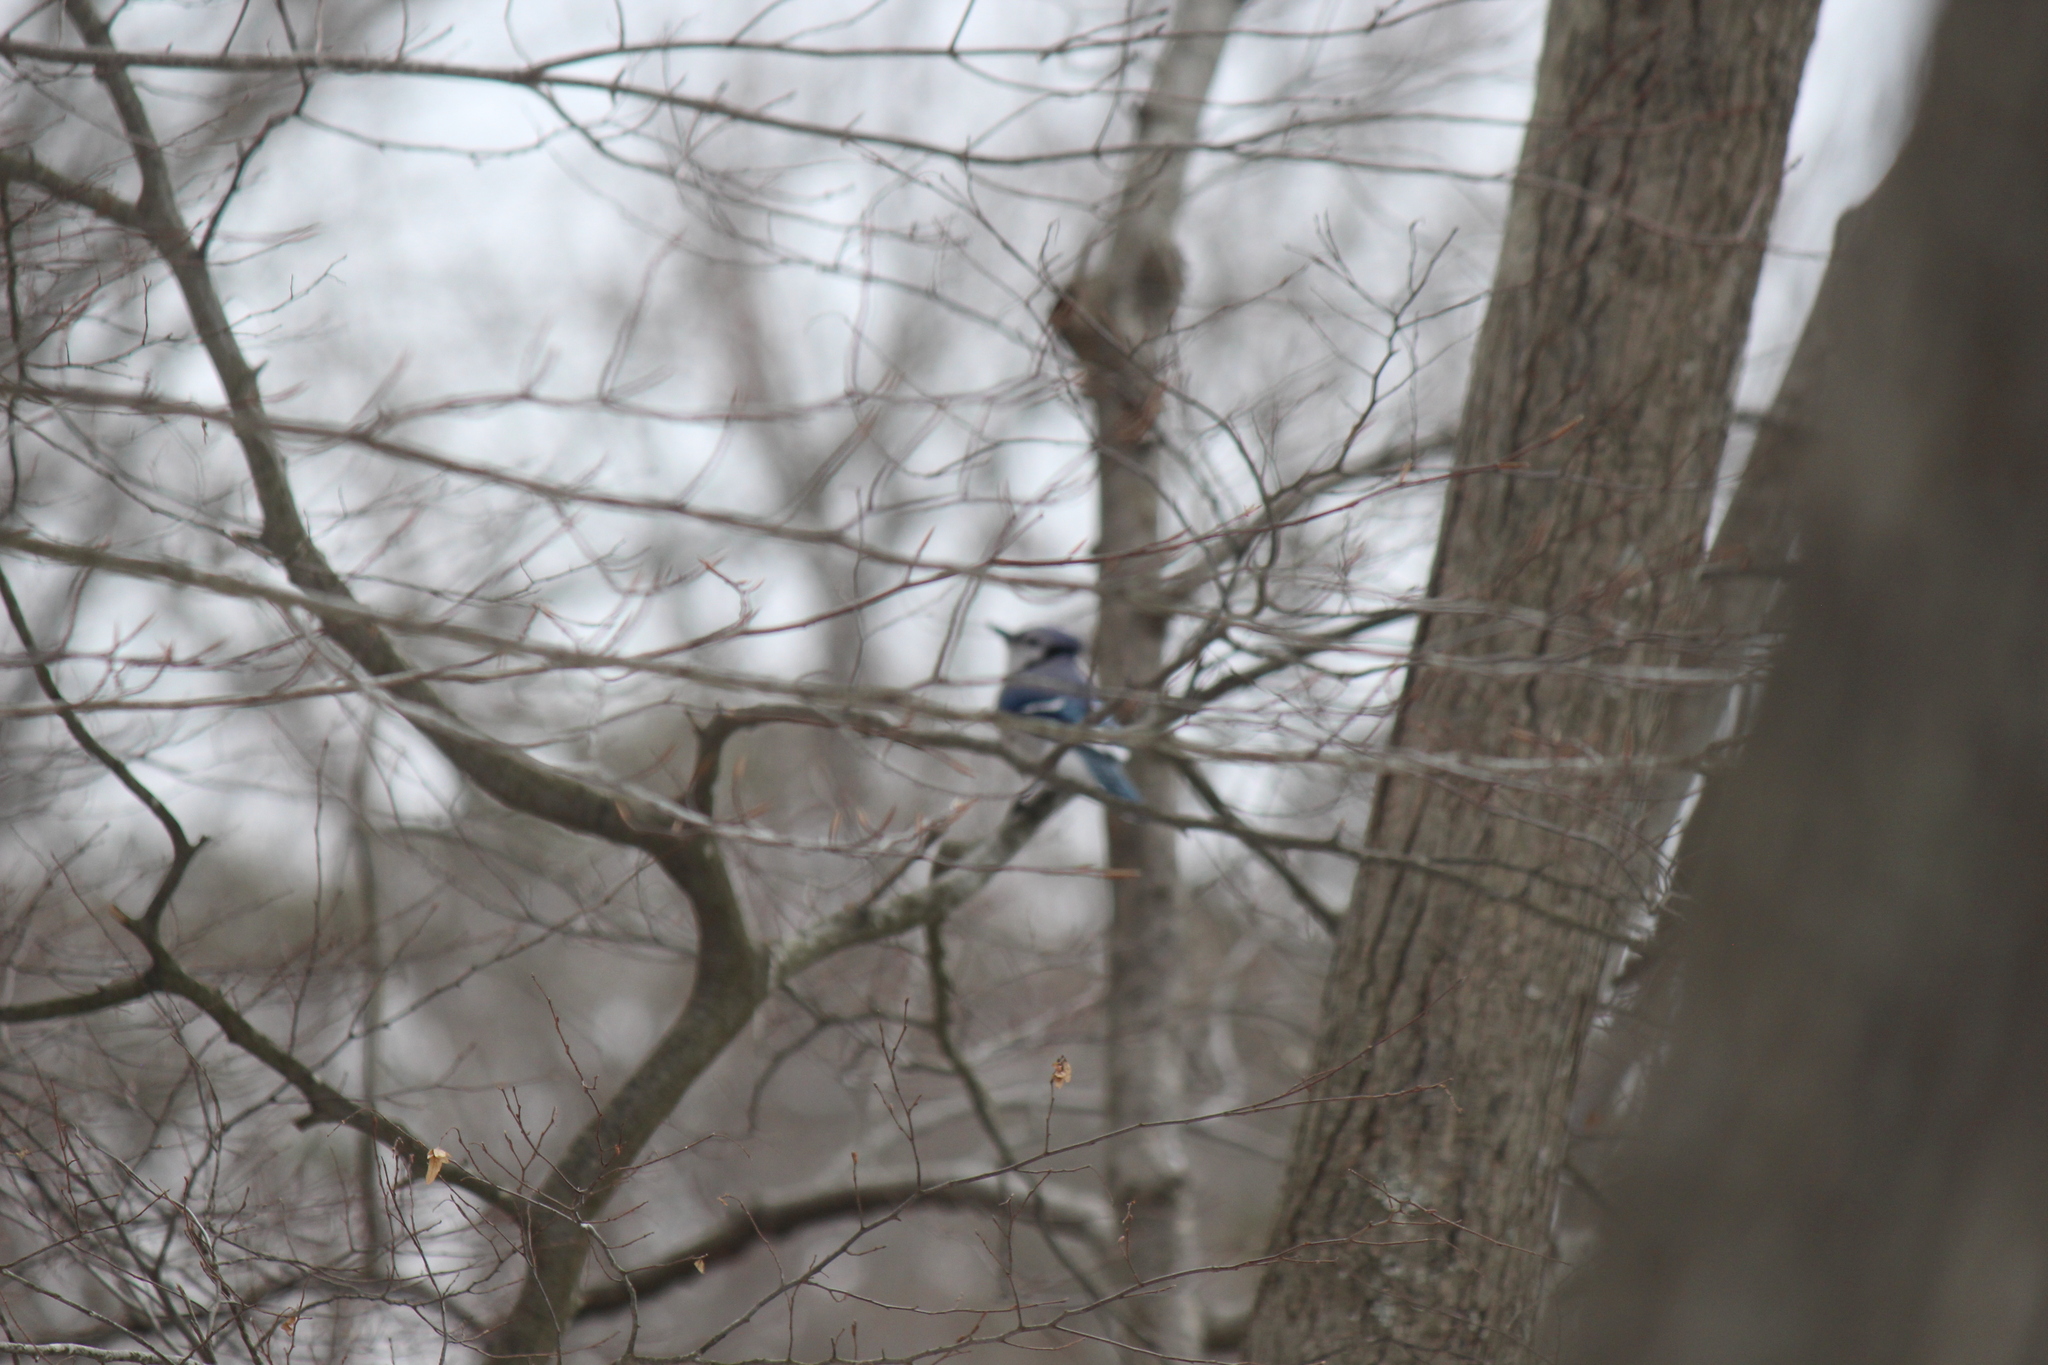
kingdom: Animalia
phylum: Chordata
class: Aves
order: Passeriformes
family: Corvidae
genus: Cyanocitta
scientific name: Cyanocitta cristata
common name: Blue jay
